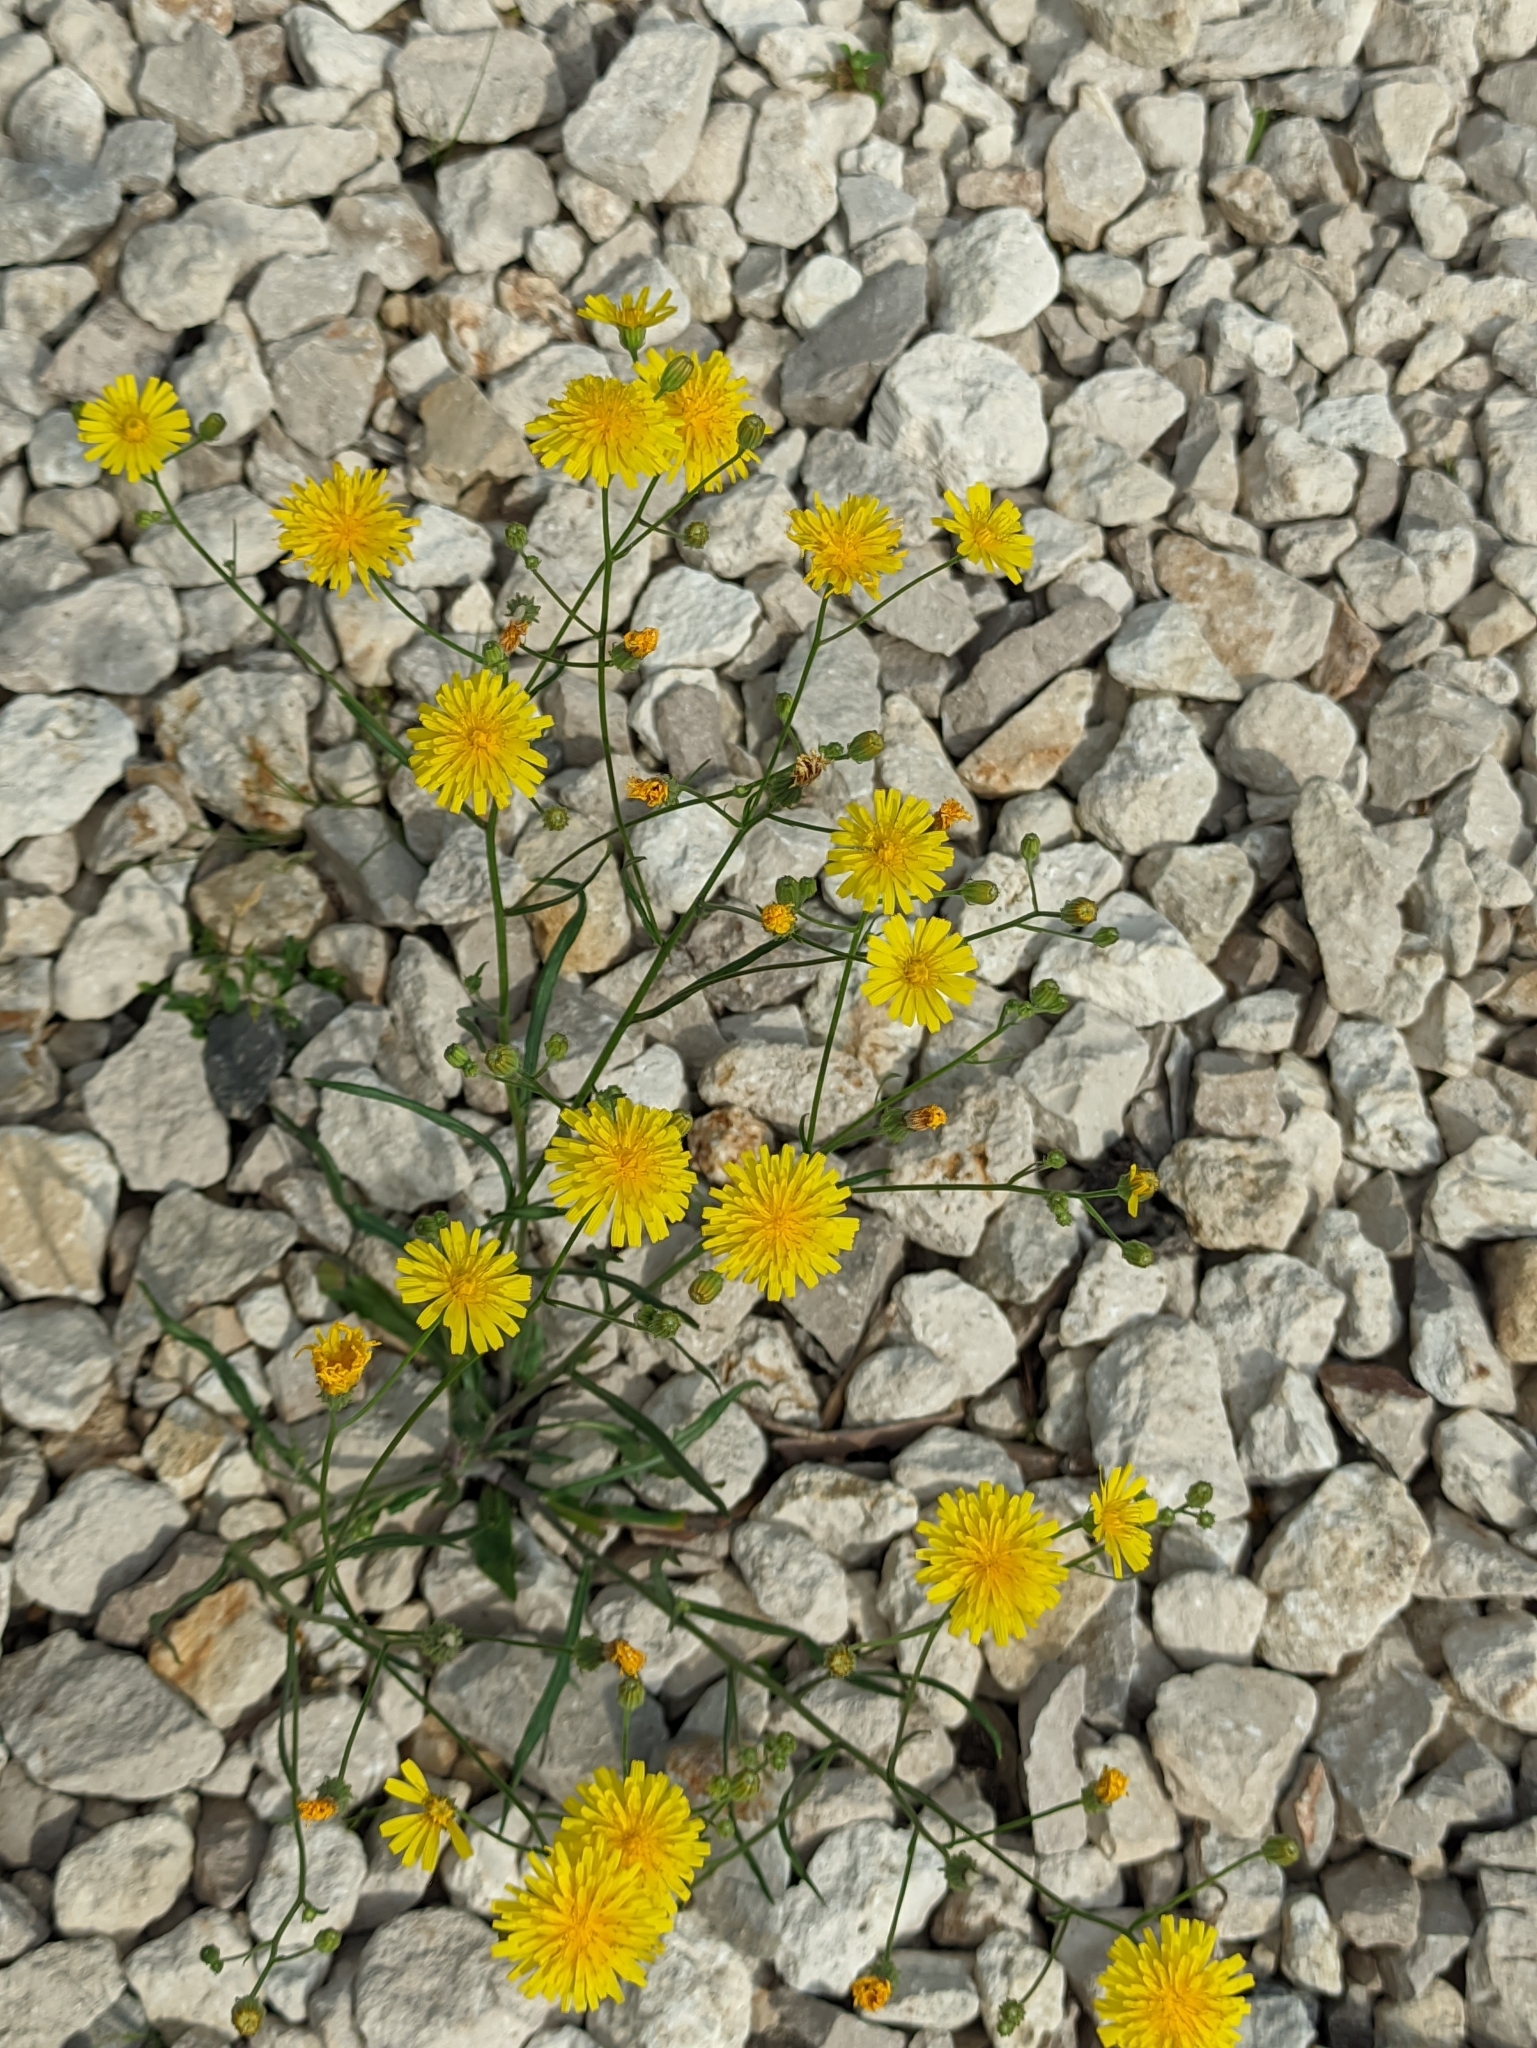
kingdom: Plantae
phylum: Tracheophyta
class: Magnoliopsida
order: Asterales
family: Asteraceae
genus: Crepis
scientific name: Crepis tectorum
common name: Narrow-leaved hawk's-beard
